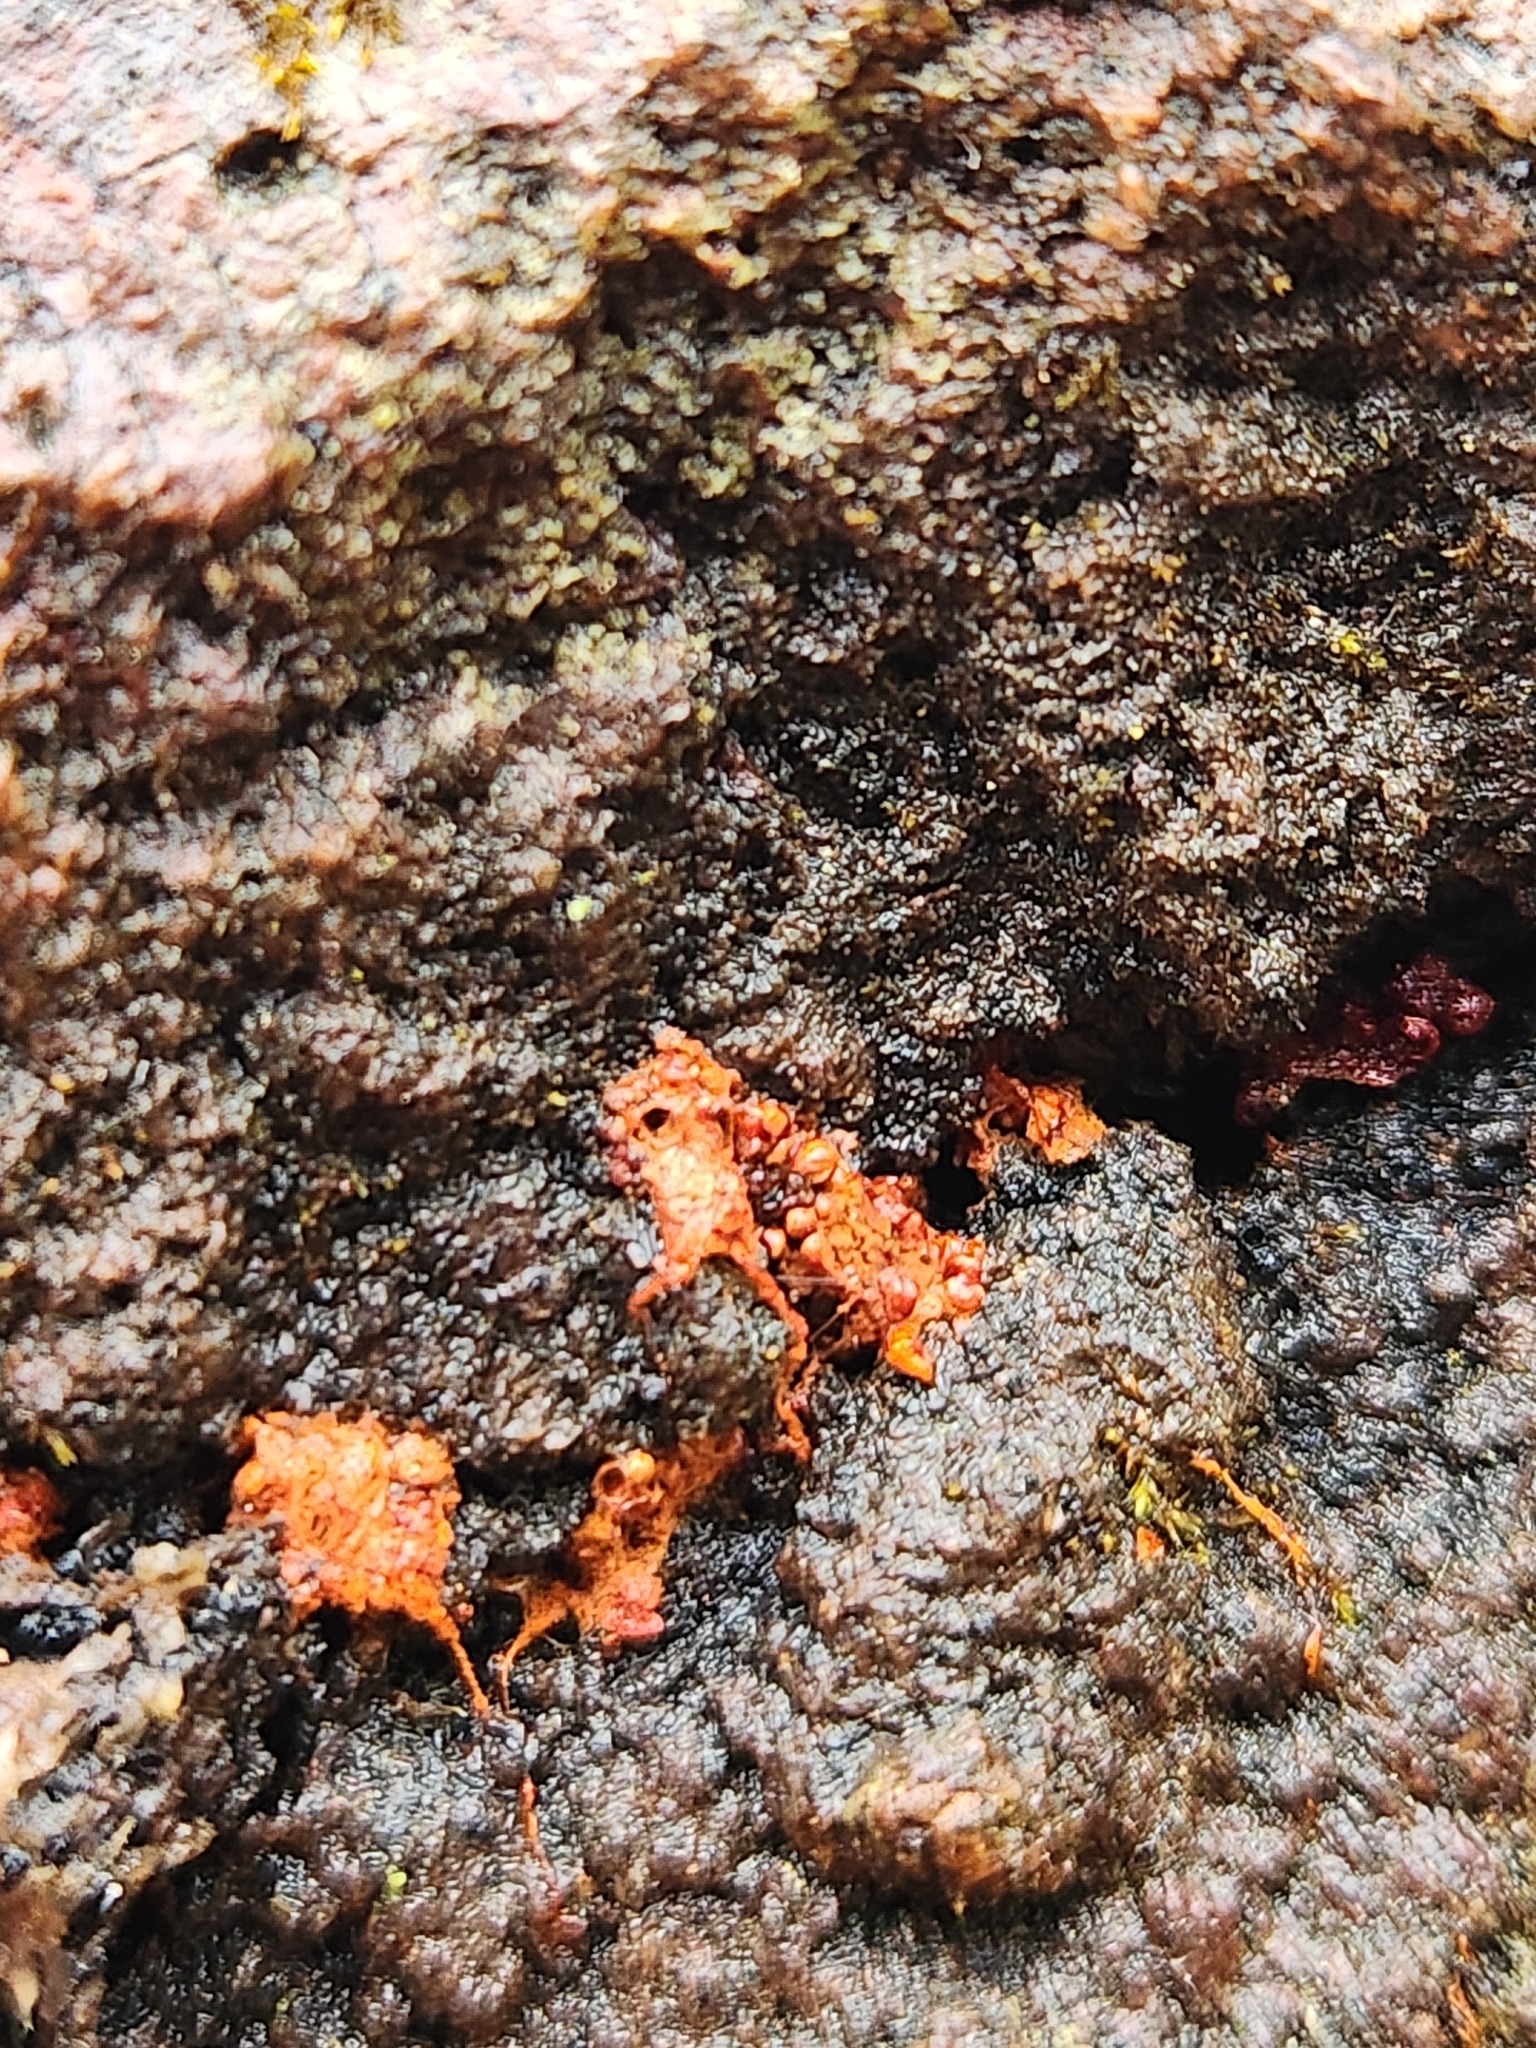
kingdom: Protozoa
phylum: Mycetozoa
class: Myxomycetes
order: Trichiales
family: Trichiaceae
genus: Metatrichia
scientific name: Metatrichia vesparia
